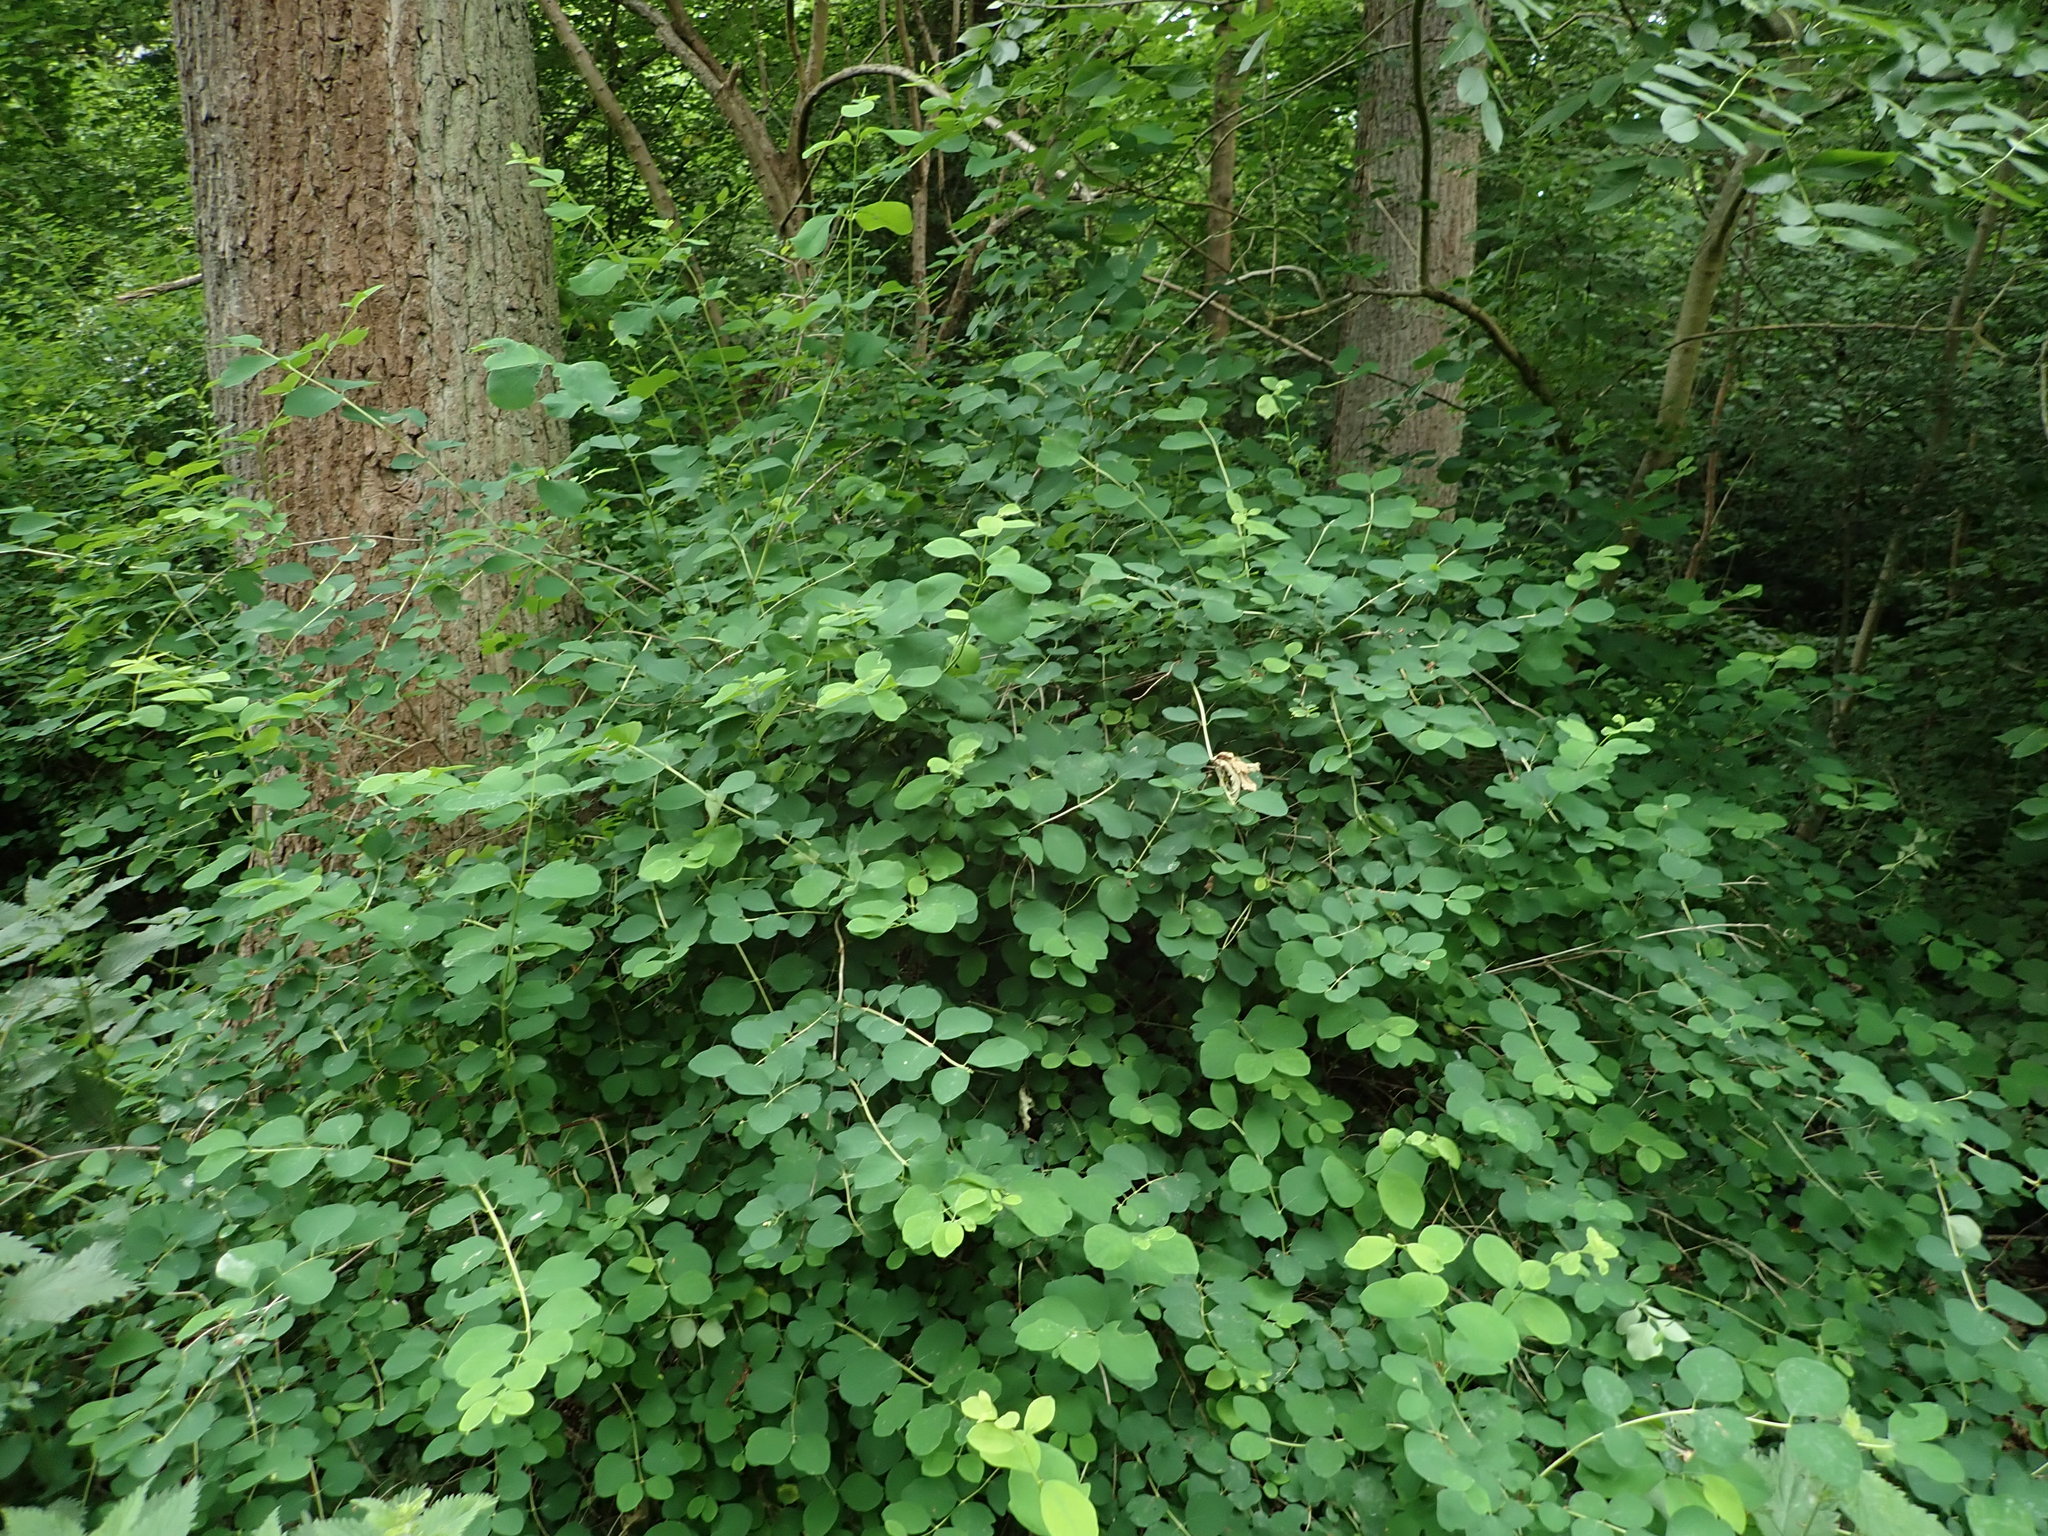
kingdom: Plantae
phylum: Tracheophyta
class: Magnoliopsida
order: Dipsacales
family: Caprifoliaceae
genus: Symphoricarpos
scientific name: Symphoricarpos albus
